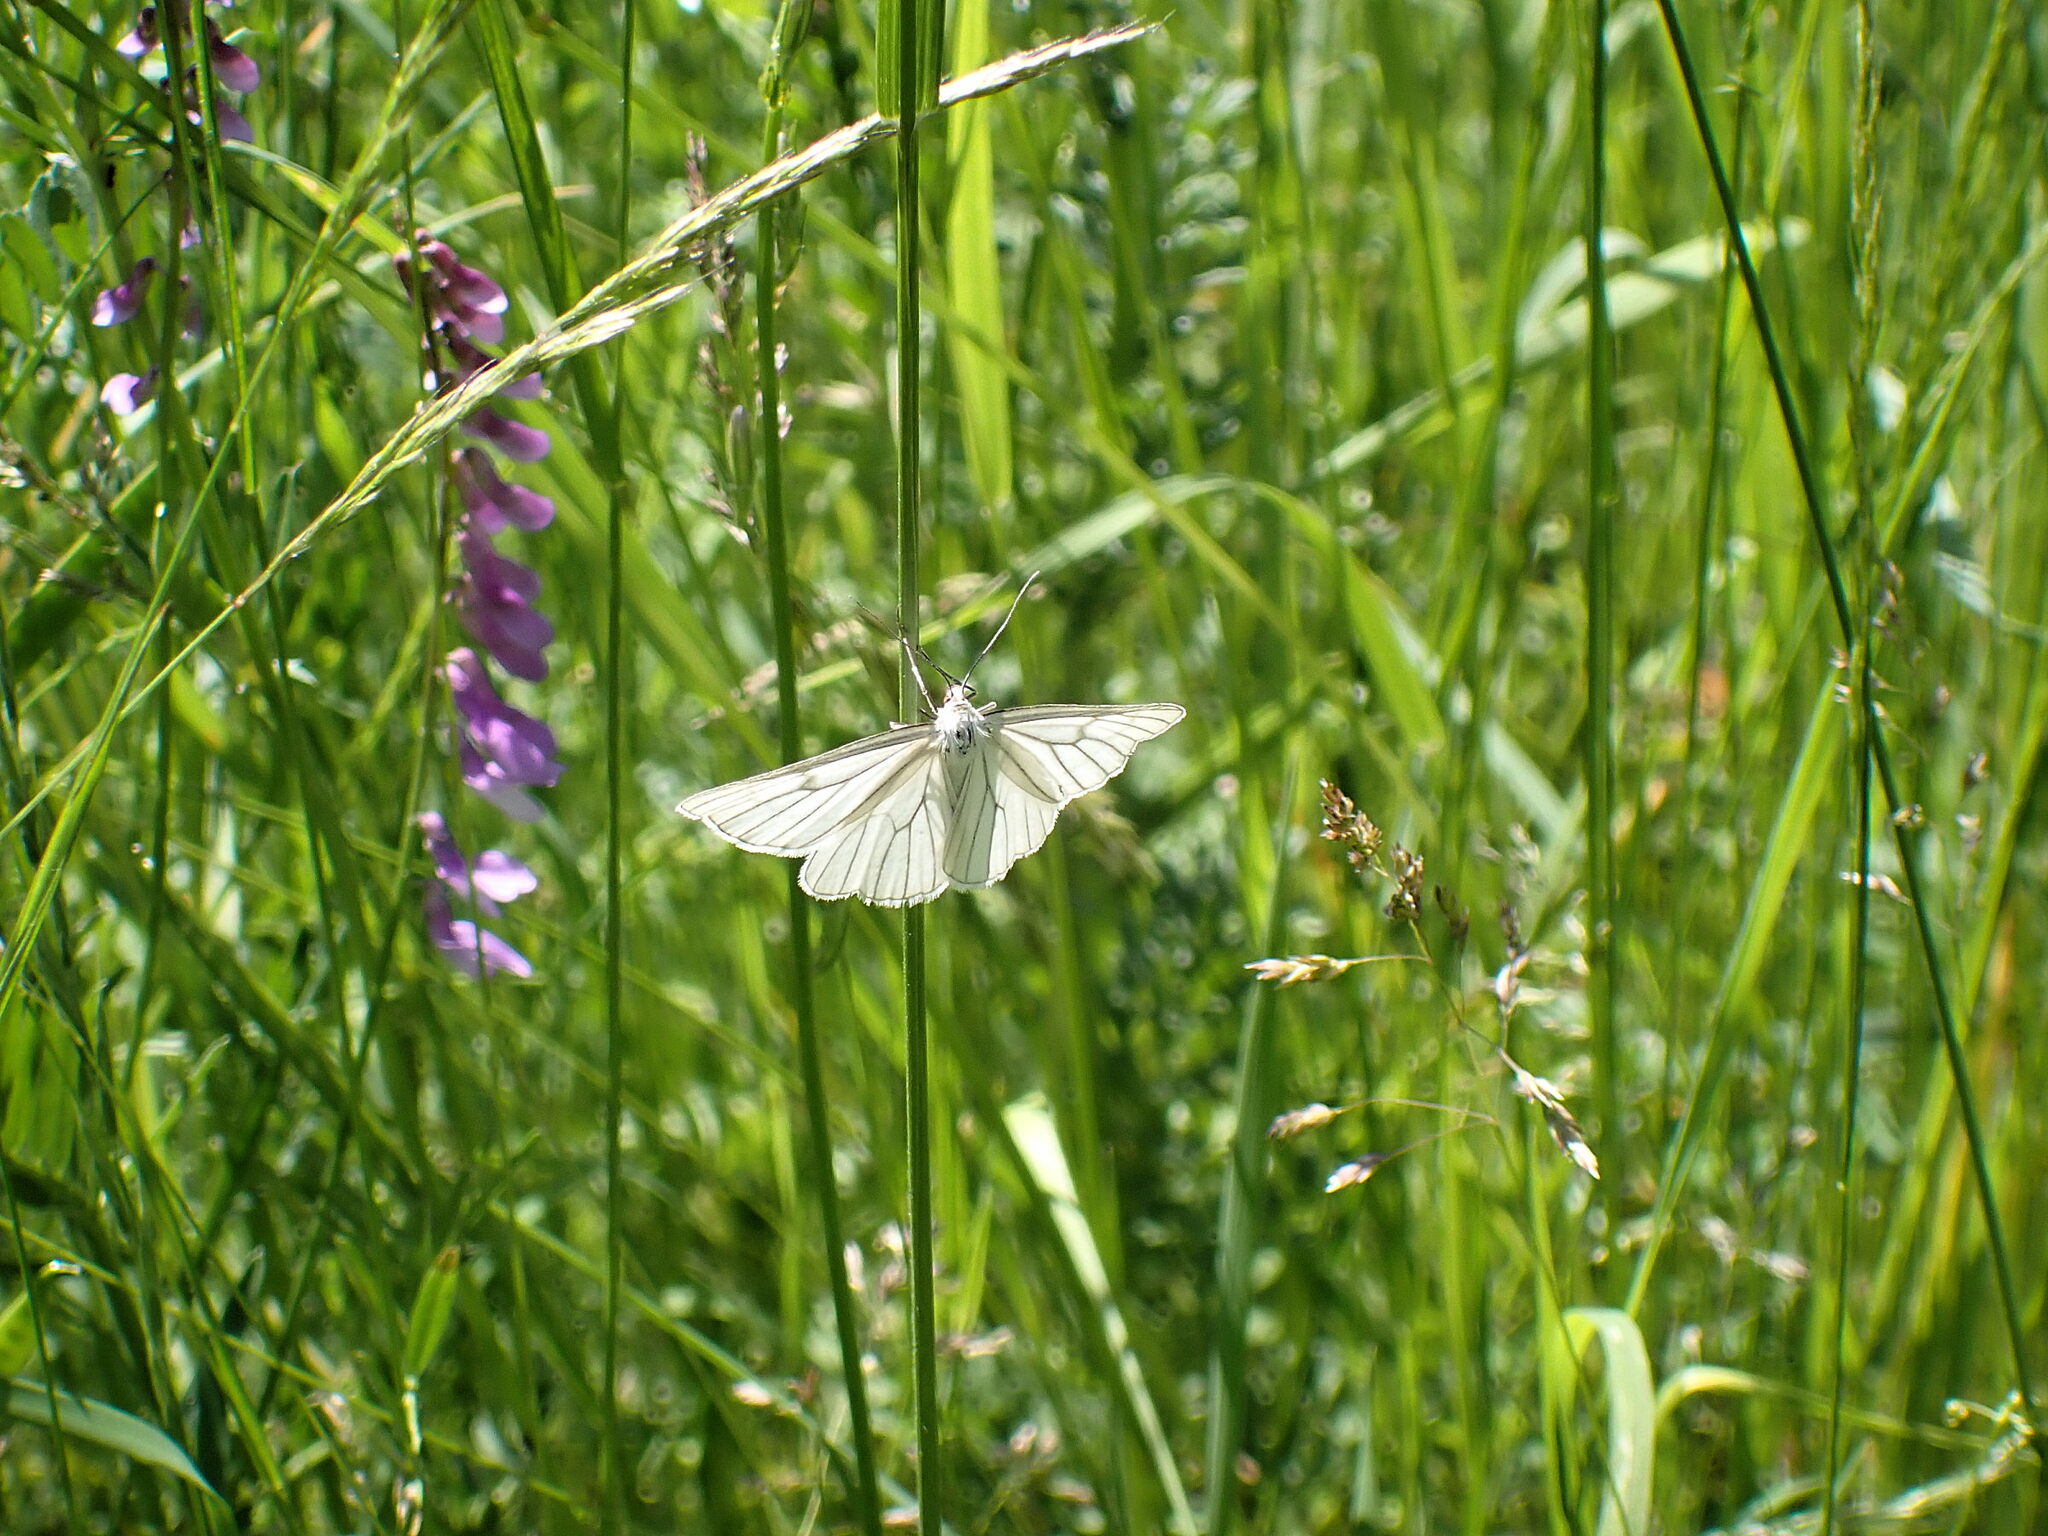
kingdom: Animalia
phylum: Arthropoda
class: Insecta
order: Lepidoptera
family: Geometridae
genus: Siona
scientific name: Siona lineata
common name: Black-veined moth
